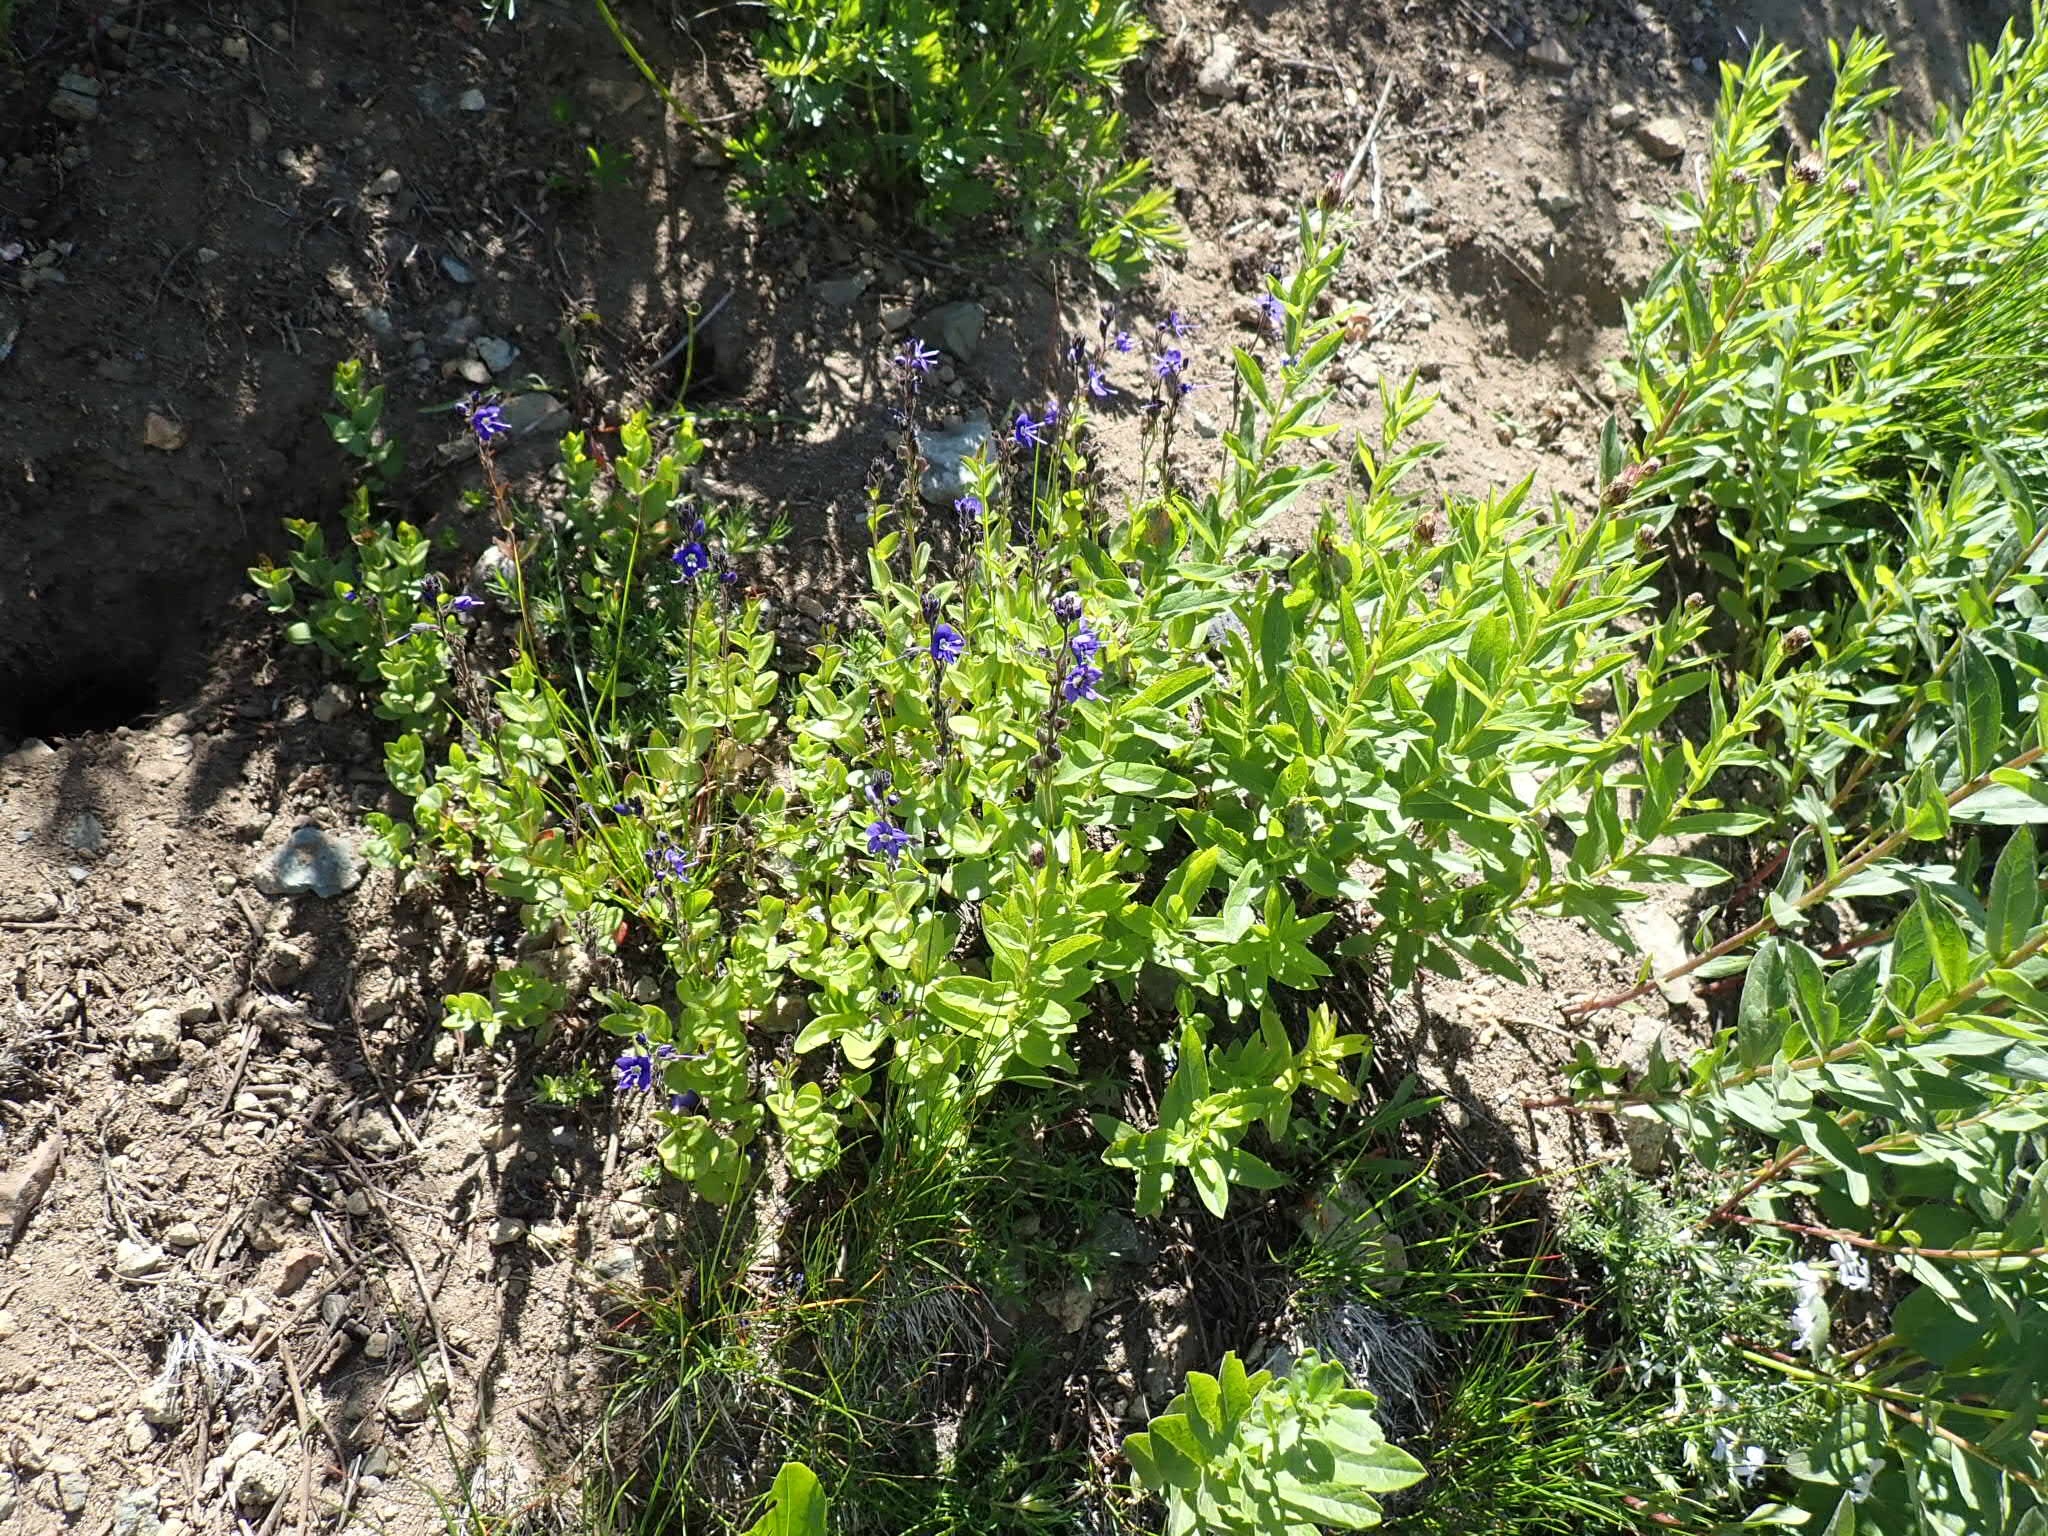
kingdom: Plantae
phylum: Tracheophyta
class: Magnoliopsida
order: Lamiales
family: Plantaginaceae
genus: Veronica
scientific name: Veronica cusickii
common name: Cusick's speedwell
